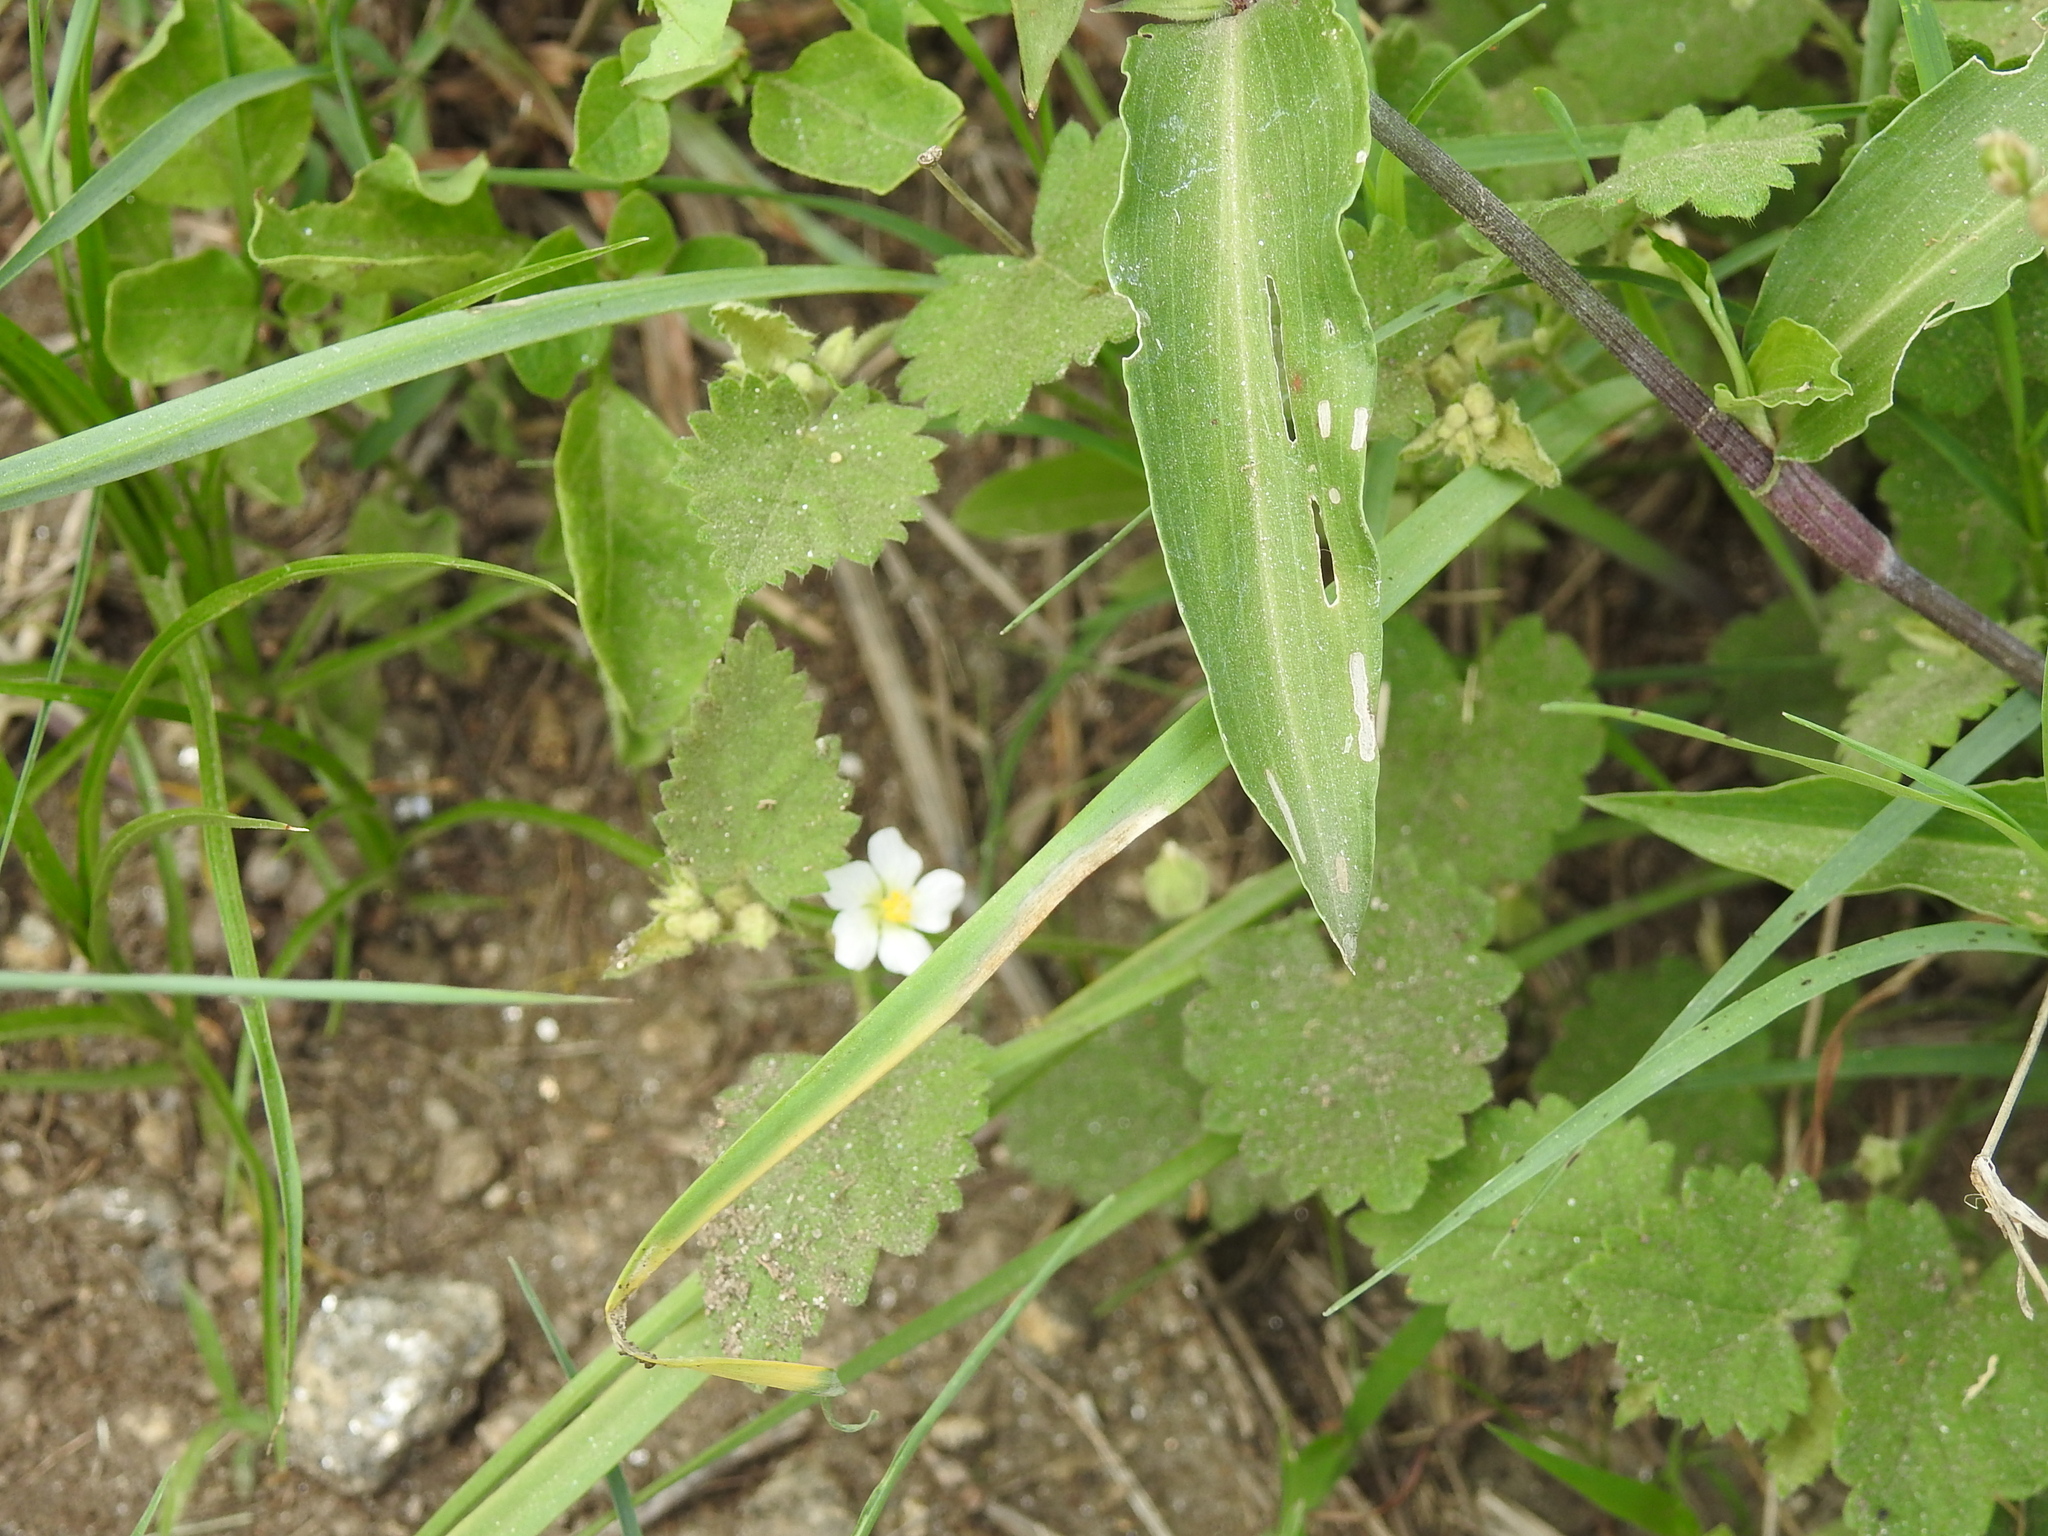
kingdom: Plantae
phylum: Tracheophyta
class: Magnoliopsida
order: Malvales
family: Malvaceae
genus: Krapovickasia
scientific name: Krapovickasia flavescens
